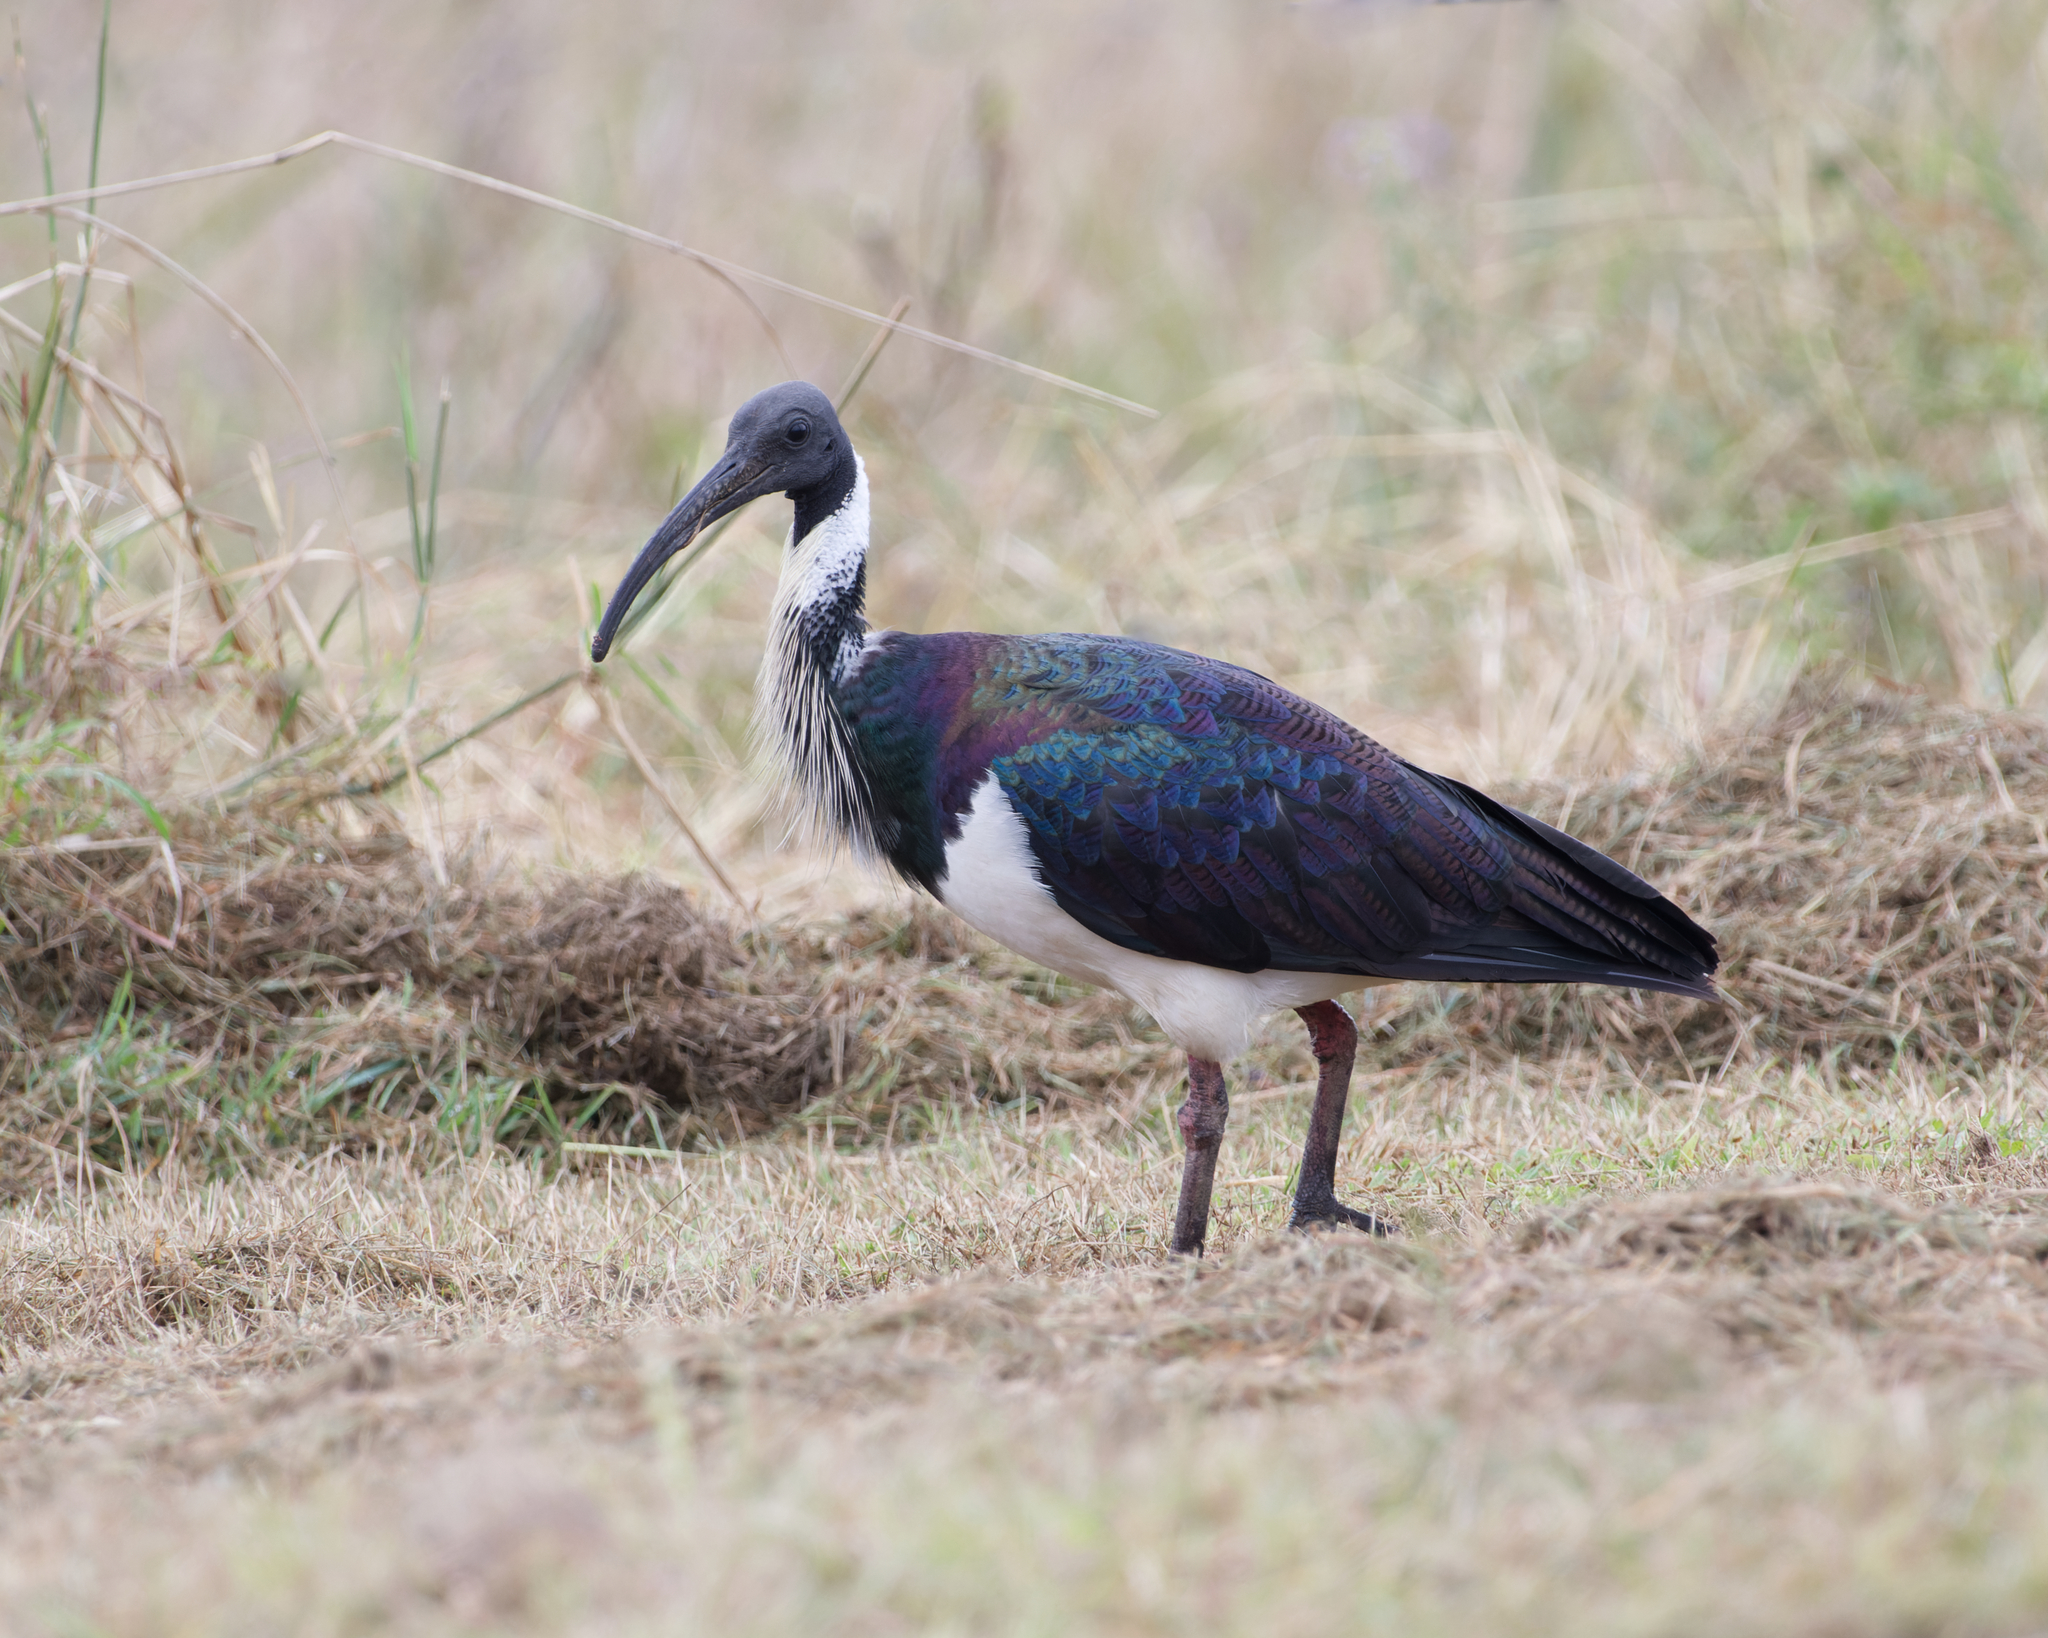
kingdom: Animalia
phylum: Chordata
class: Aves
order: Pelecaniformes
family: Threskiornithidae
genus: Threskiornis
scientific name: Threskiornis spinicollis
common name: Straw-necked ibis
